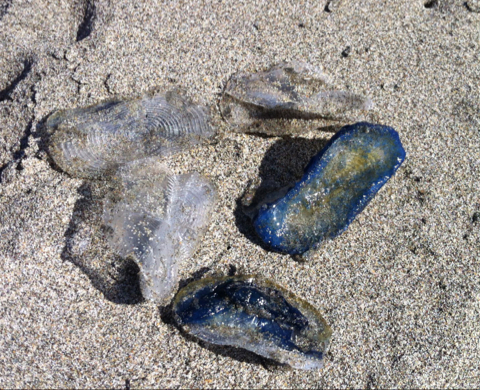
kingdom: Animalia
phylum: Cnidaria
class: Hydrozoa
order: Anthoathecata
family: Porpitidae
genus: Velella
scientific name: Velella velella
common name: By-the-wind-sailor
